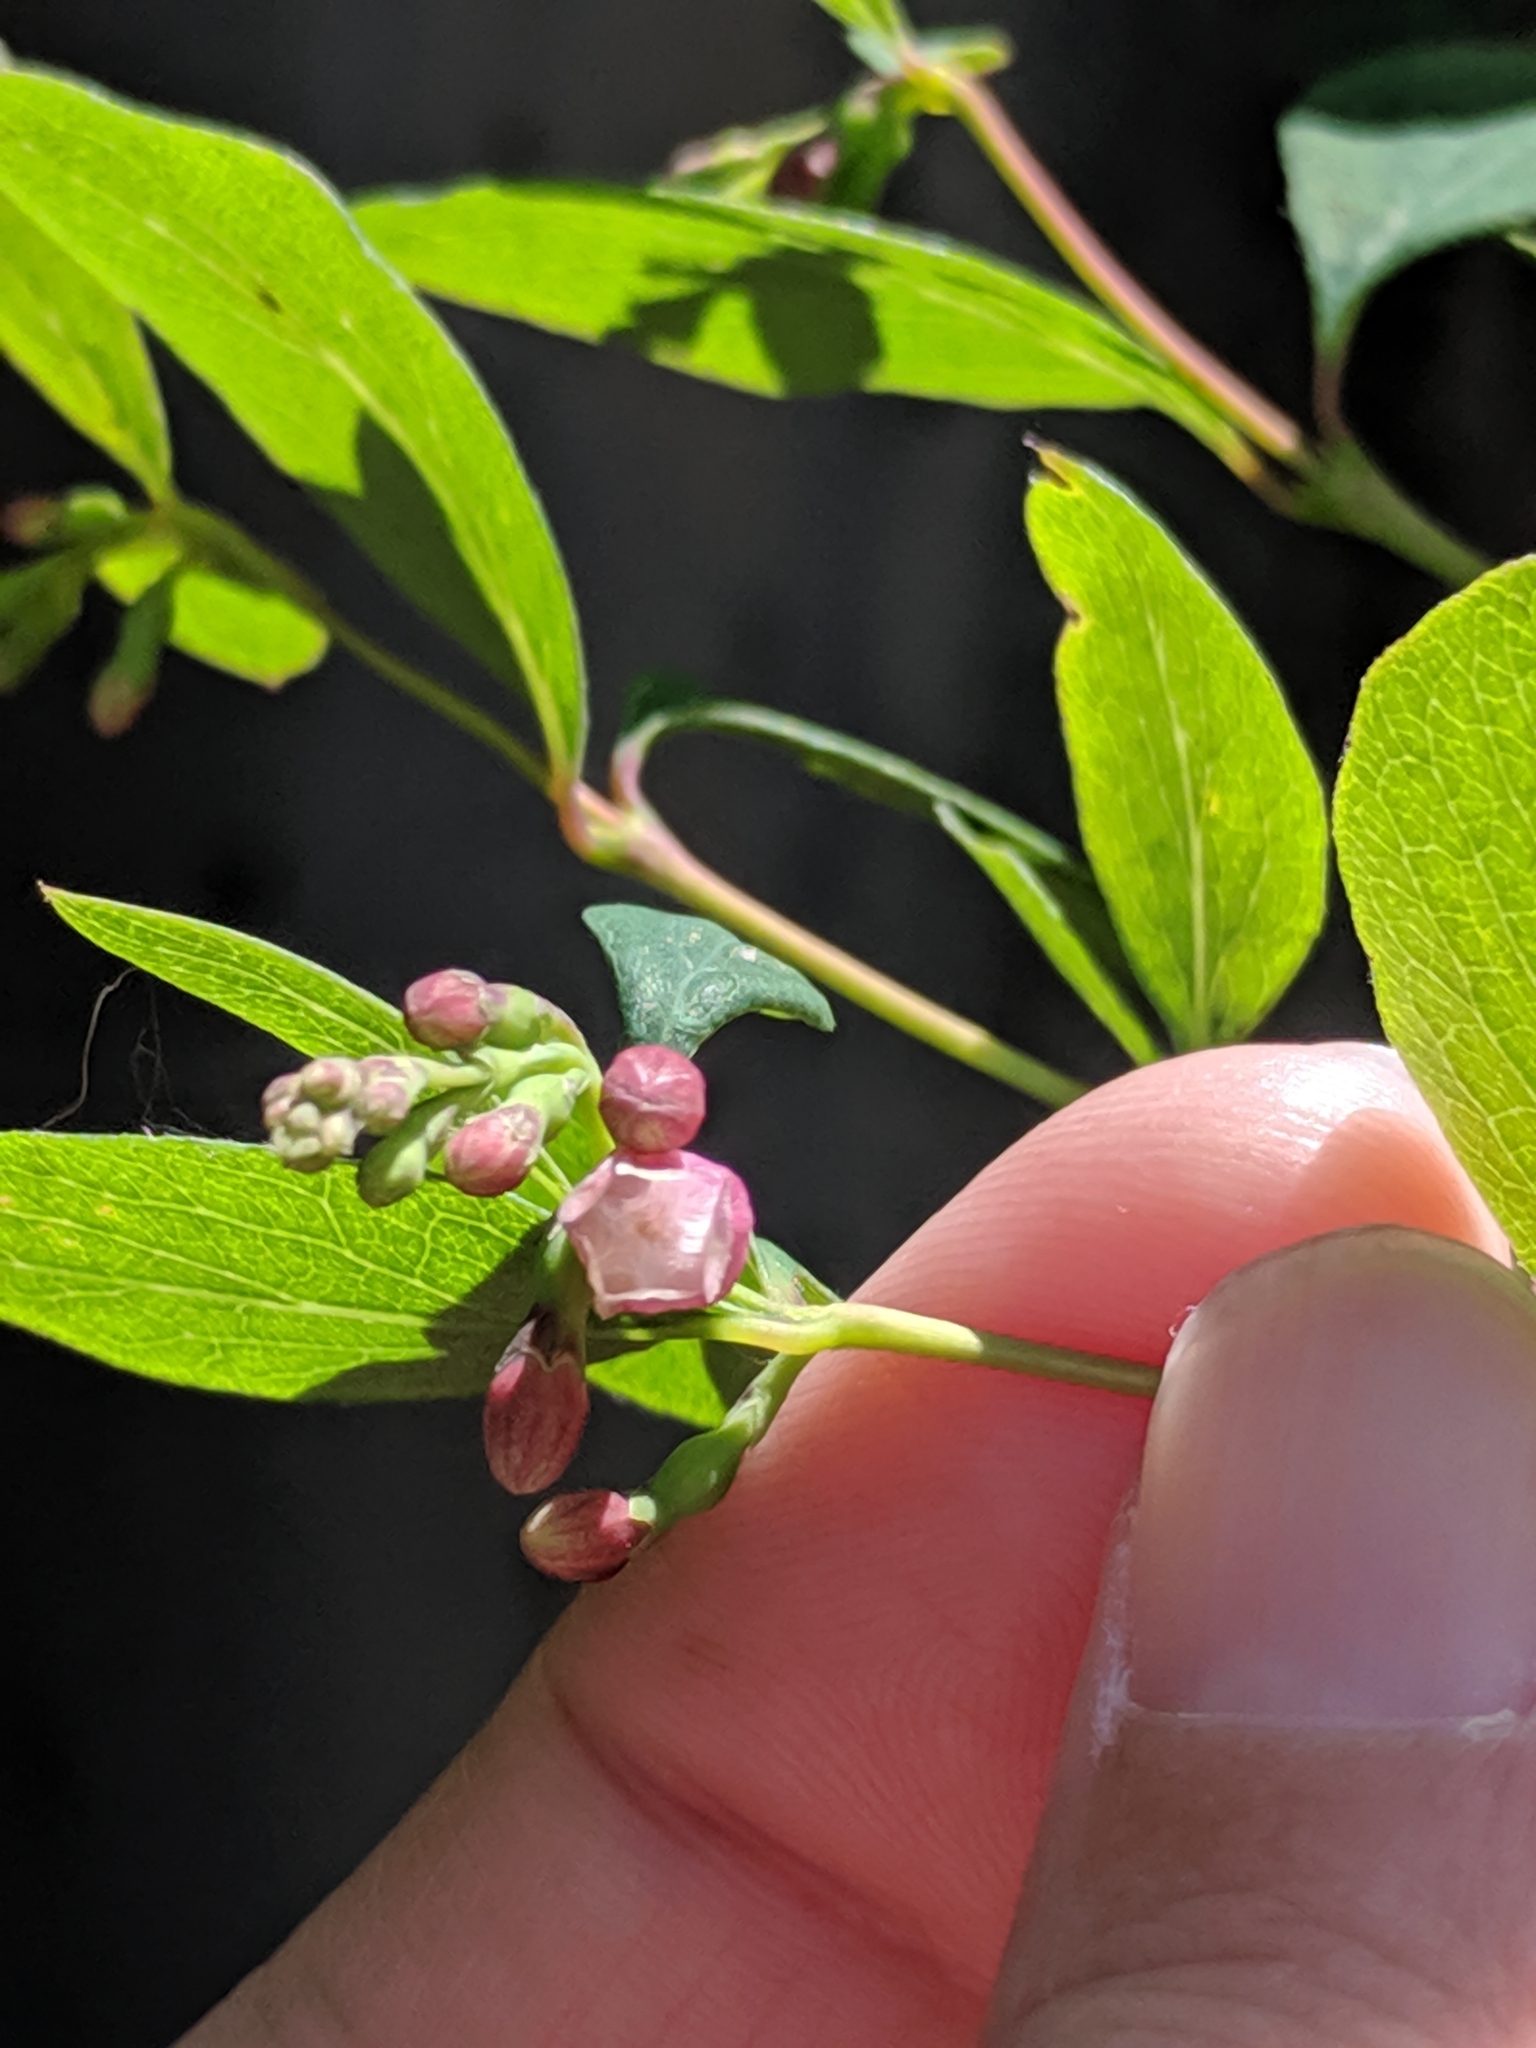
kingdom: Plantae
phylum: Tracheophyta
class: Magnoliopsida
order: Dipsacales
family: Caprifoliaceae
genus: Symphoricarpos
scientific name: Symphoricarpos albus
